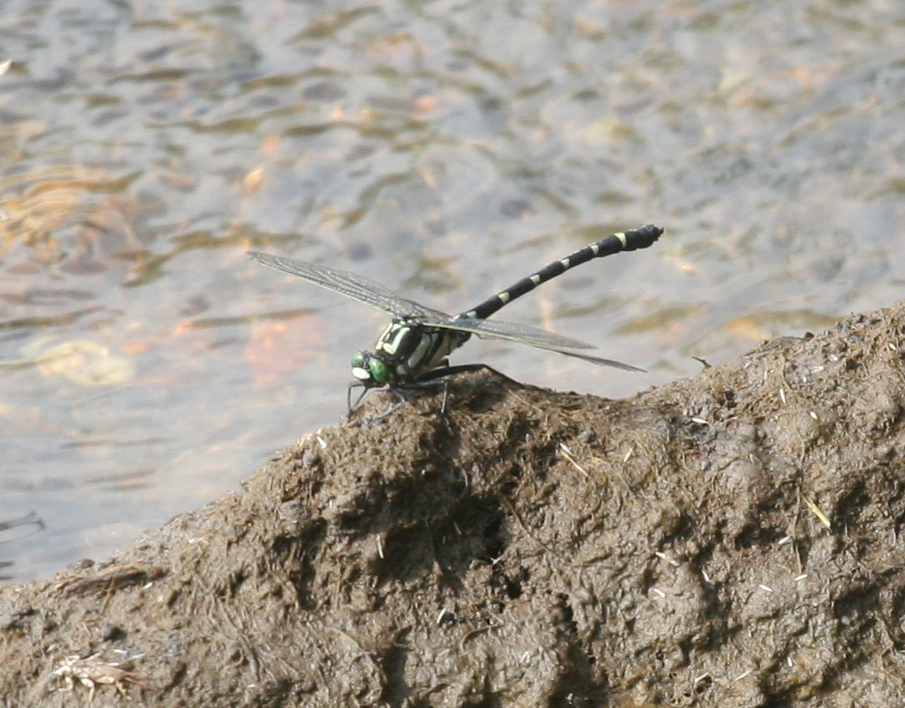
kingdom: Animalia
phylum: Arthropoda
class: Insecta
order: Odonata
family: Gomphidae
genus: Sieboldius
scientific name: Sieboldius albardae
